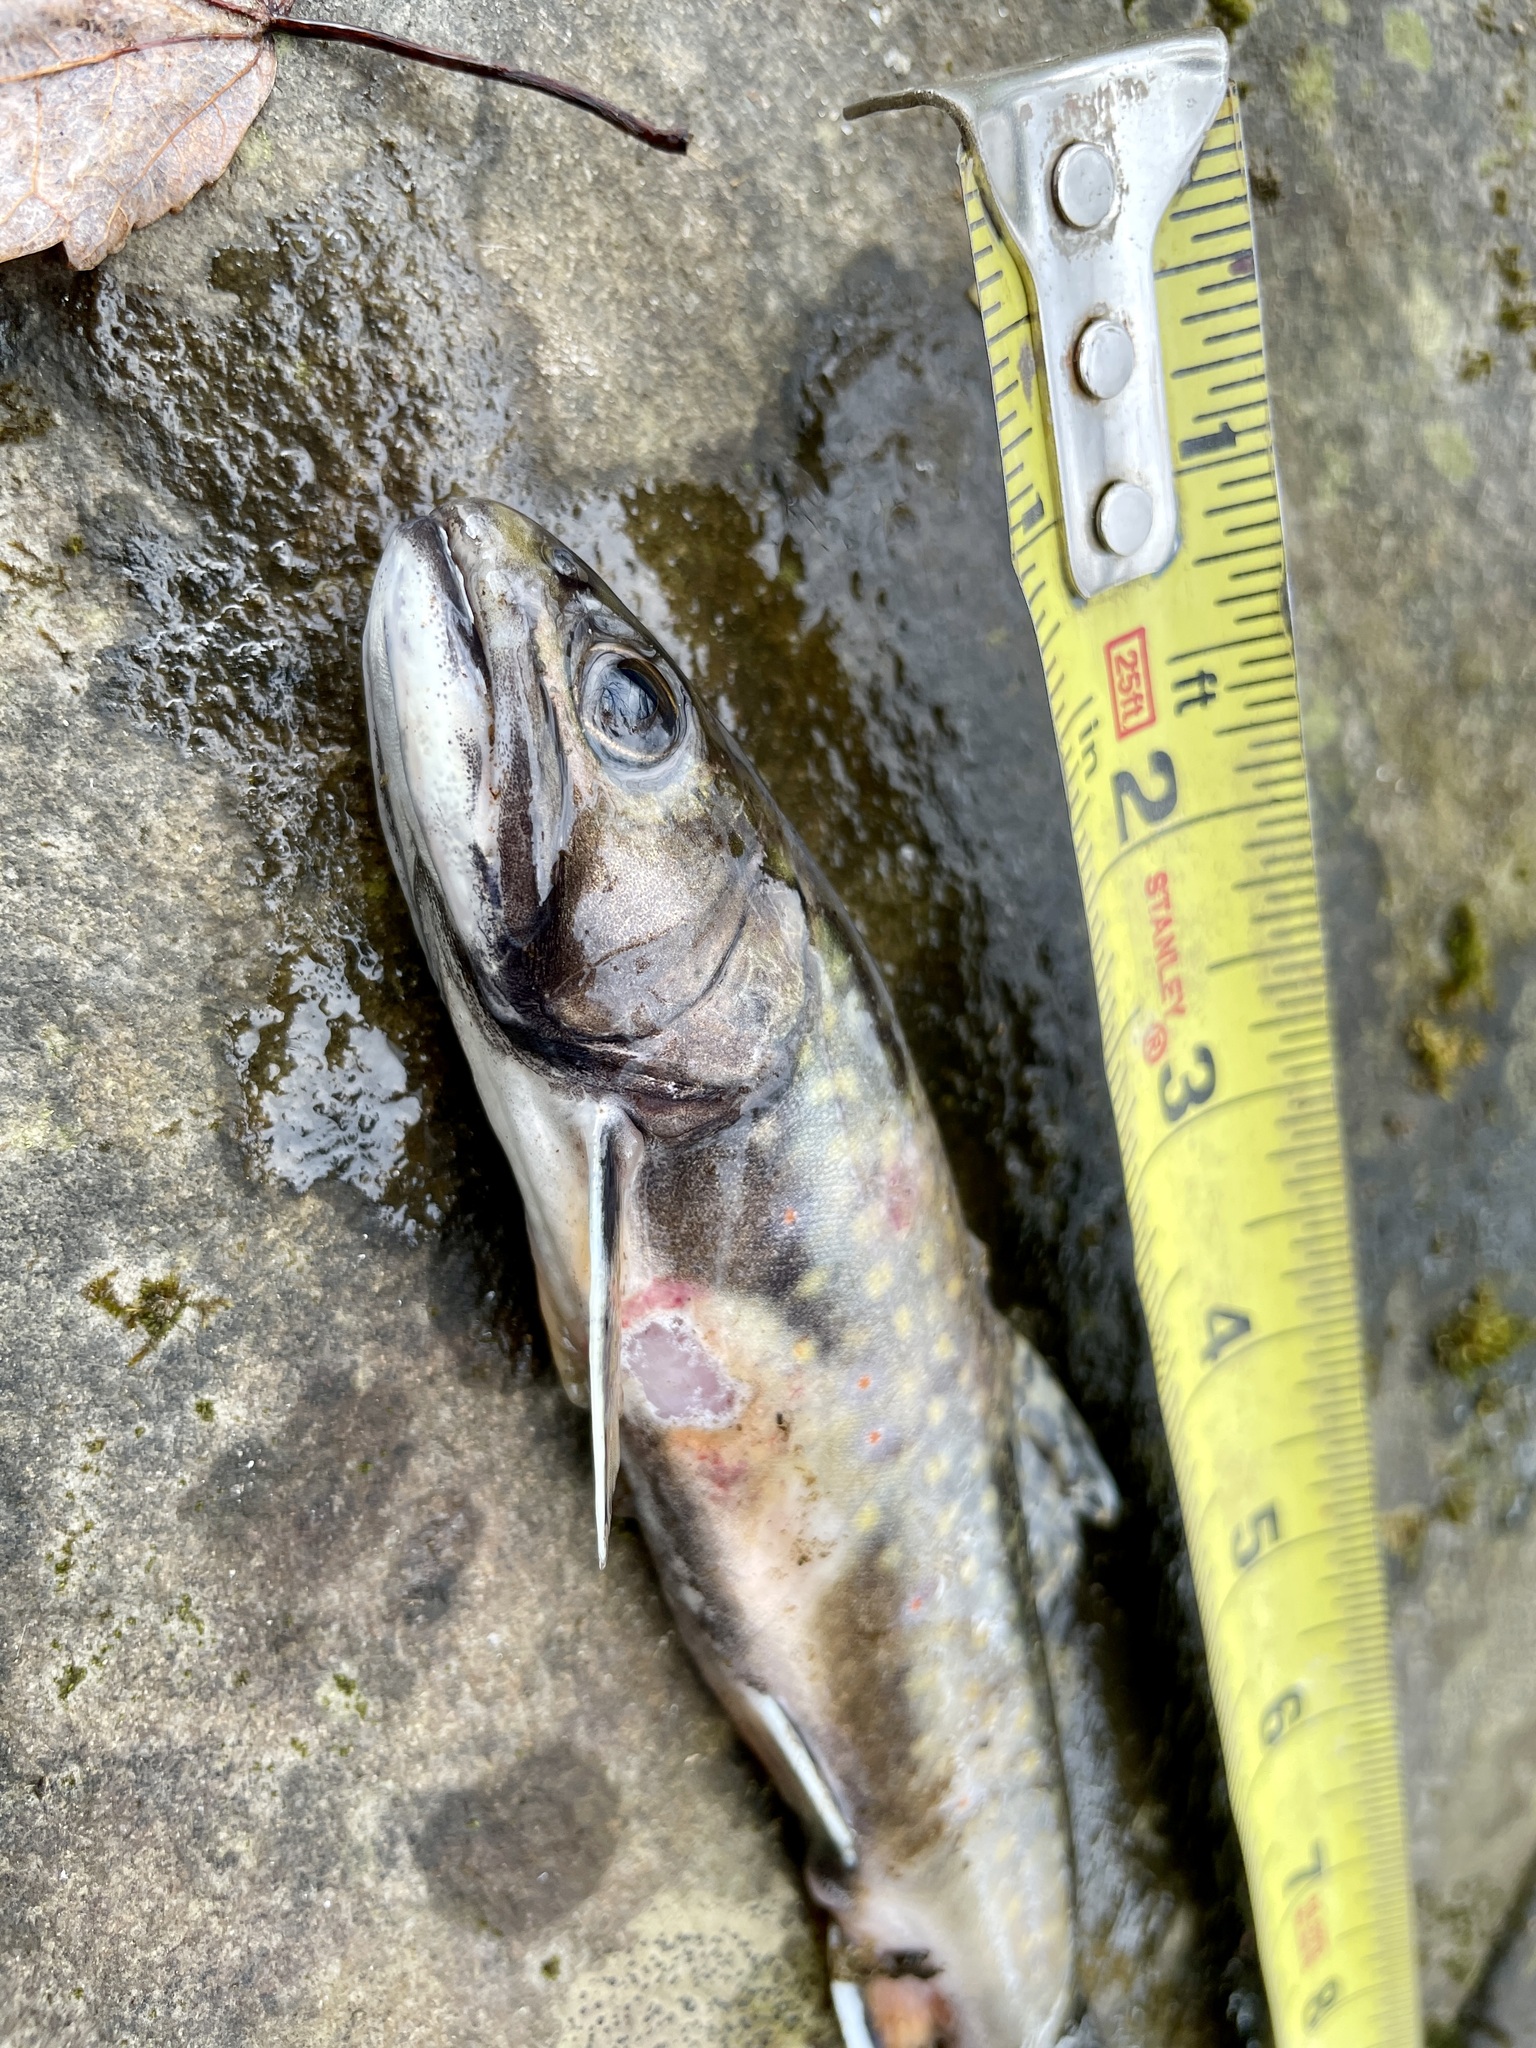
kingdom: Animalia
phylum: Chordata
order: Salmoniformes
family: Salmonidae
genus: Salvelinus
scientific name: Salvelinus fontinalis
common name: Brook trout
